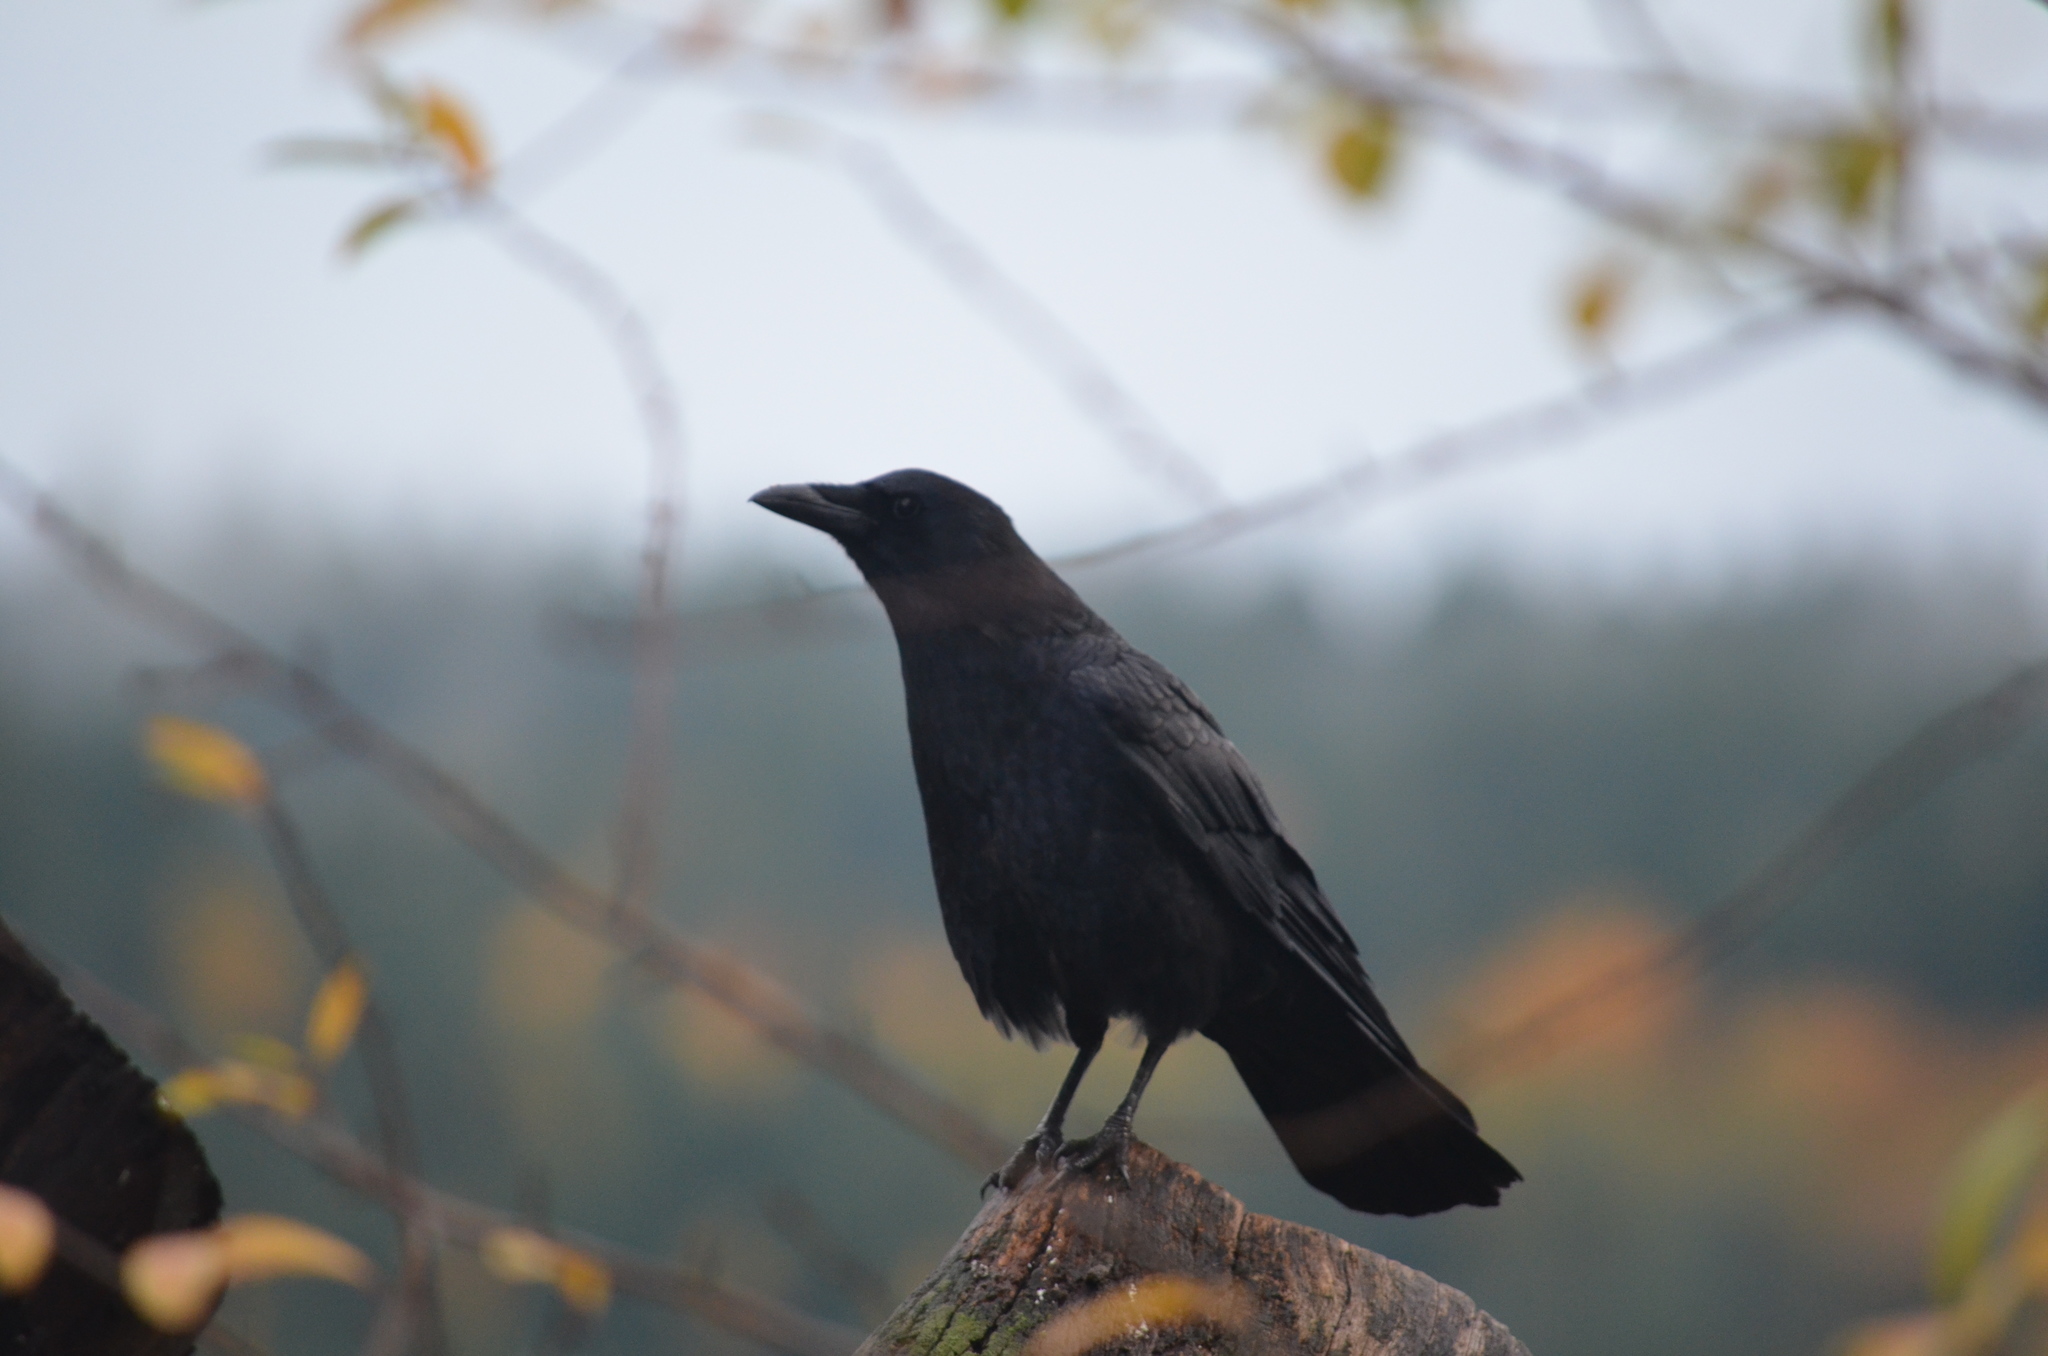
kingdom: Animalia
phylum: Chordata
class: Aves
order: Passeriformes
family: Corvidae
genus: Corvus
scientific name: Corvus brachyrhynchos
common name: American crow
